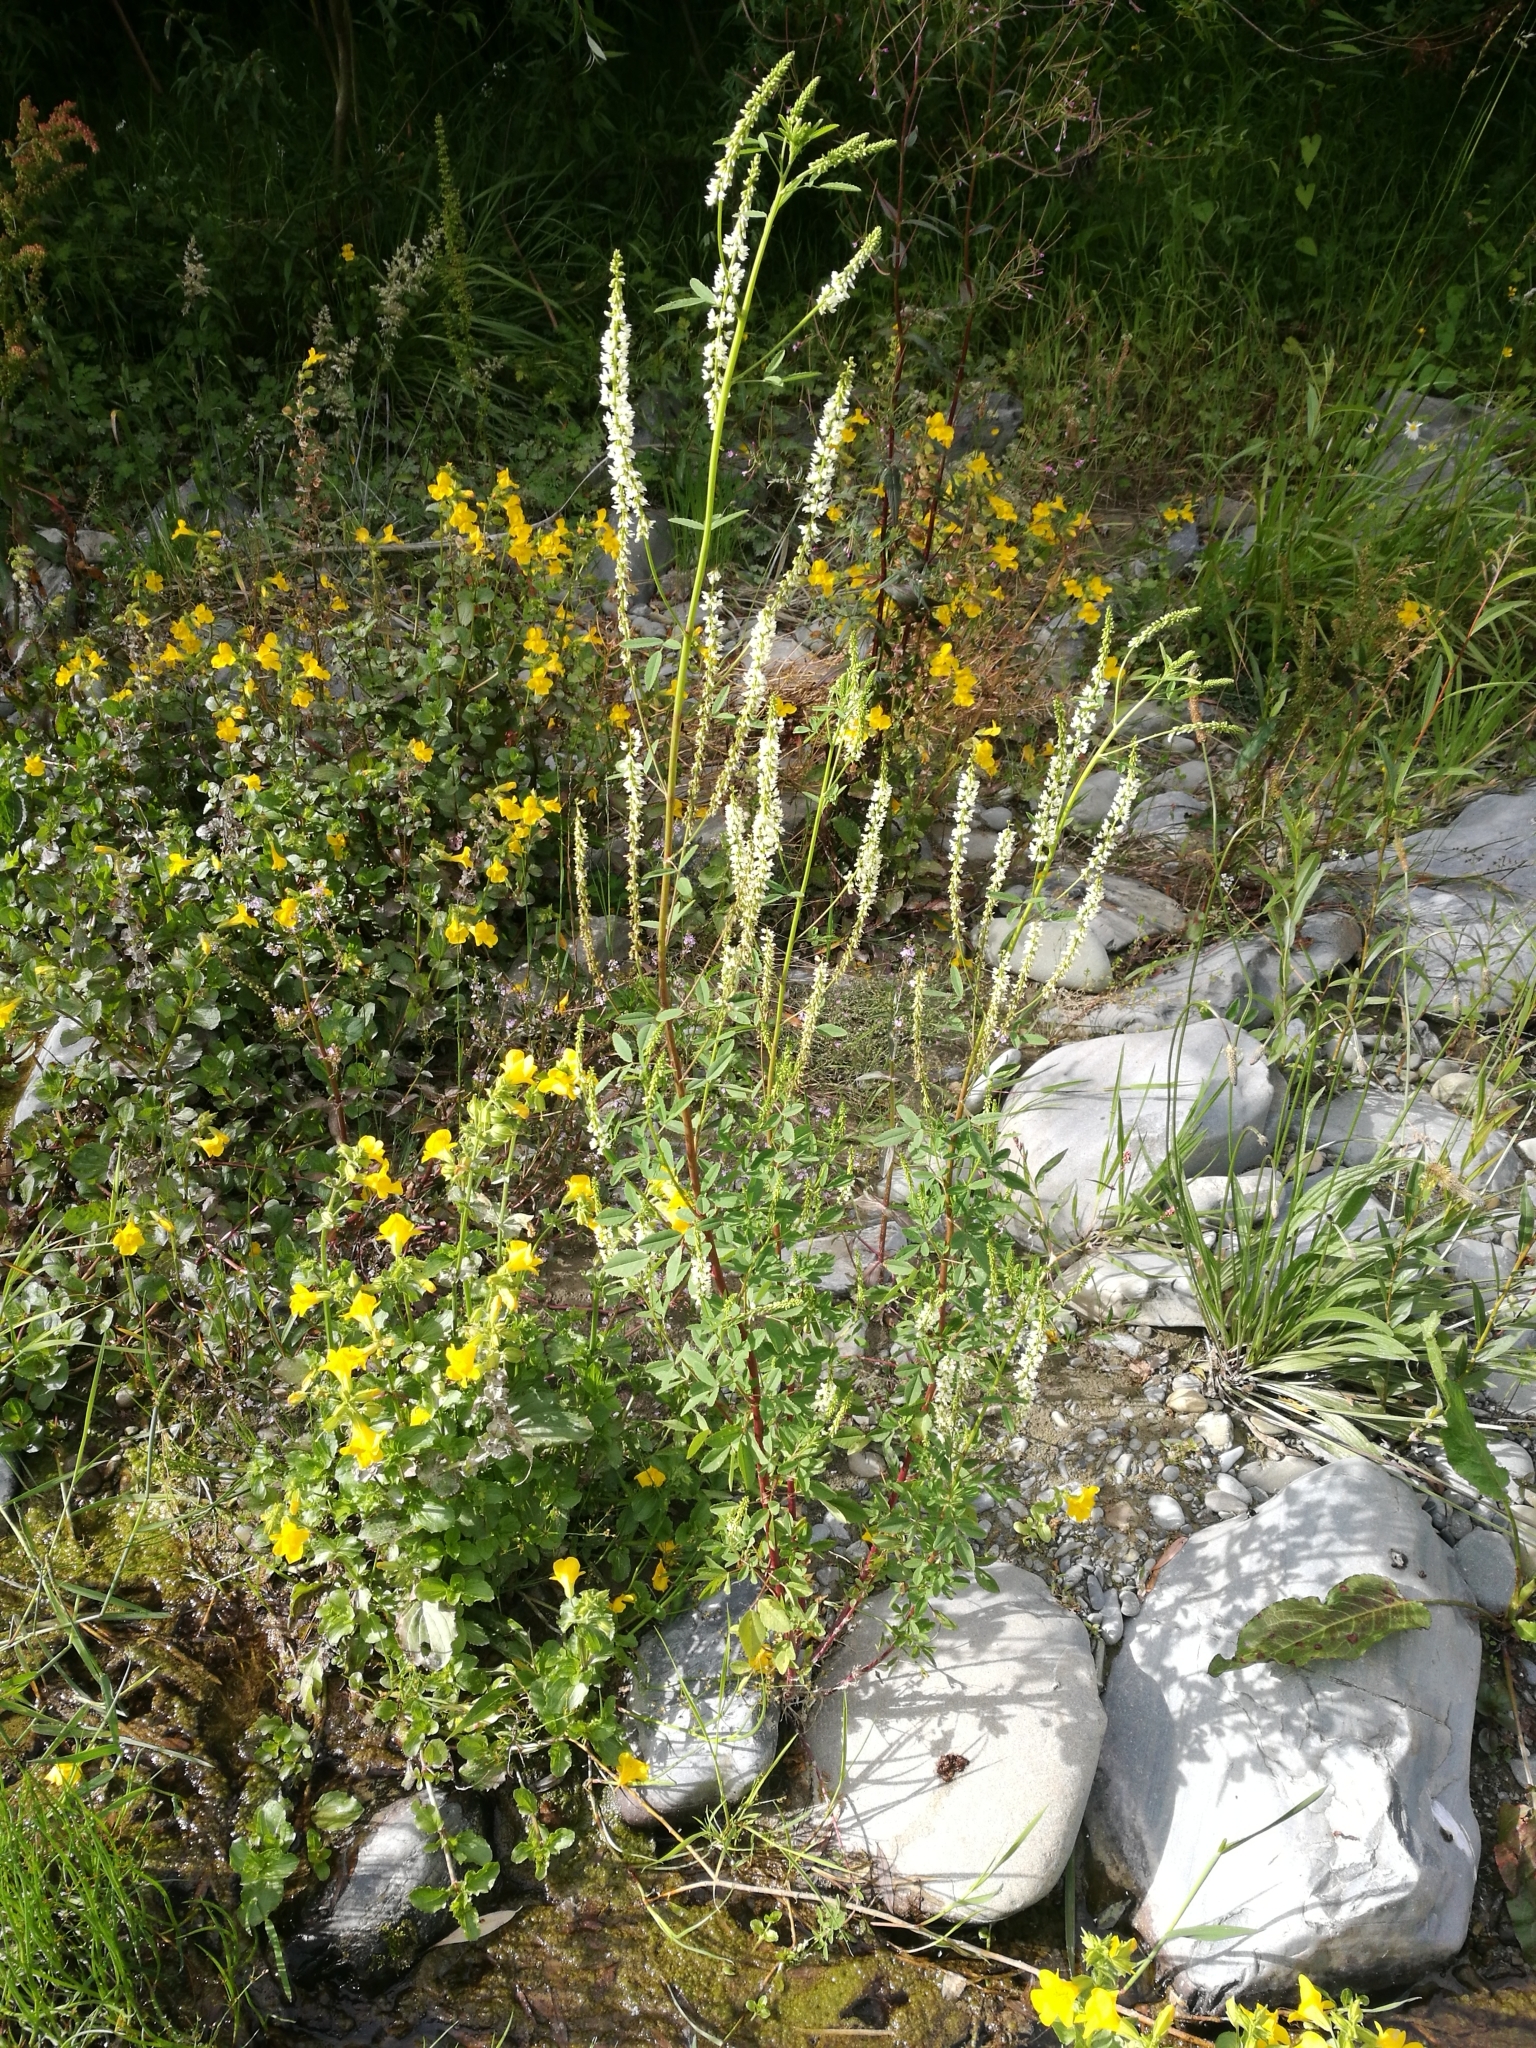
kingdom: Plantae
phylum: Tracheophyta
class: Magnoliopsida
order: Fabales
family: Fabaceae
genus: Melilotus
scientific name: Melilotus albus
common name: White melilot
